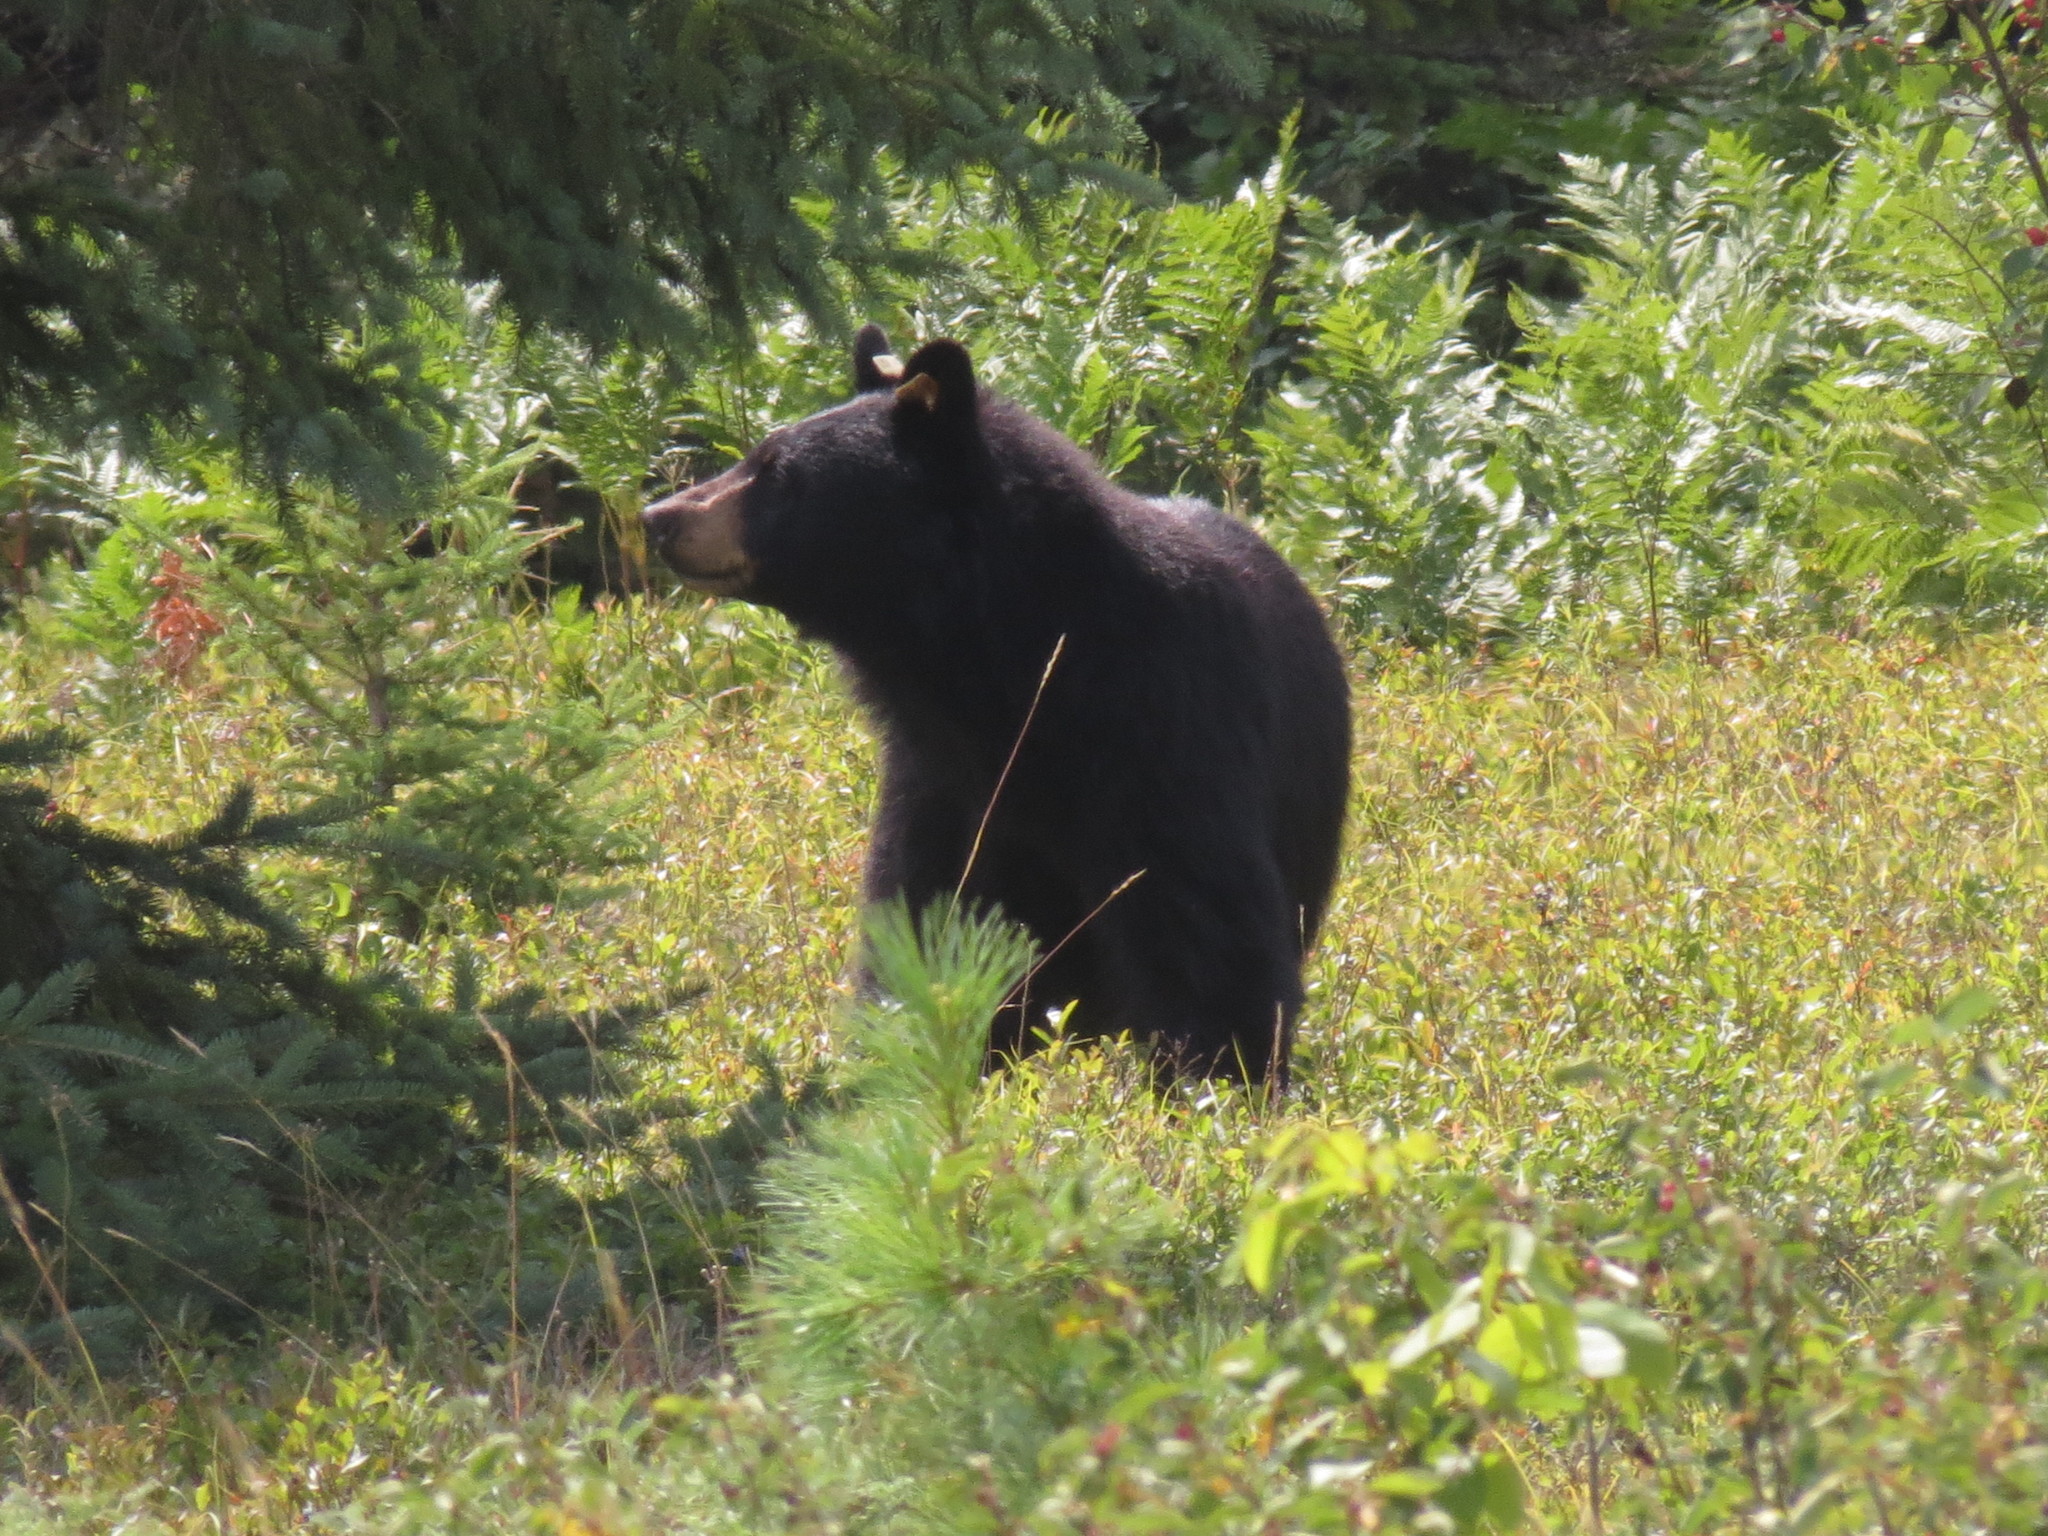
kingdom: Animalia
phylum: Chordata
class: Mammalia
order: Carnivora
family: Ursidae
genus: Ursus
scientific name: Ursus americanus
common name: American black bear
